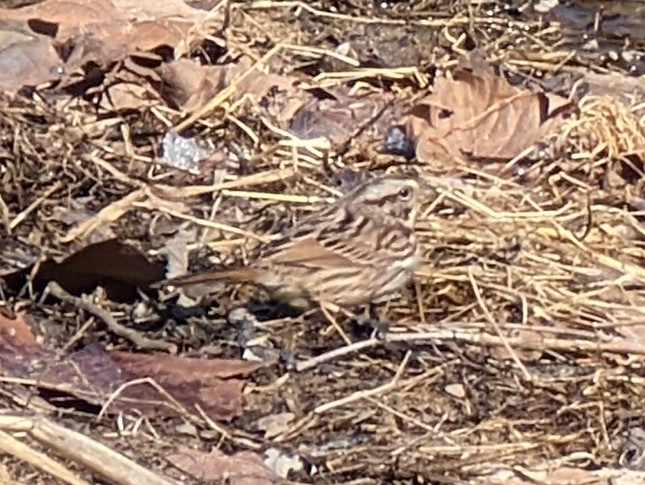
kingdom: Animalia
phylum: Chordata
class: Aves
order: Passeriformes
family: Passerellidae
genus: Melospiza
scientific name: Melospiza melodia
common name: Song sparrow
